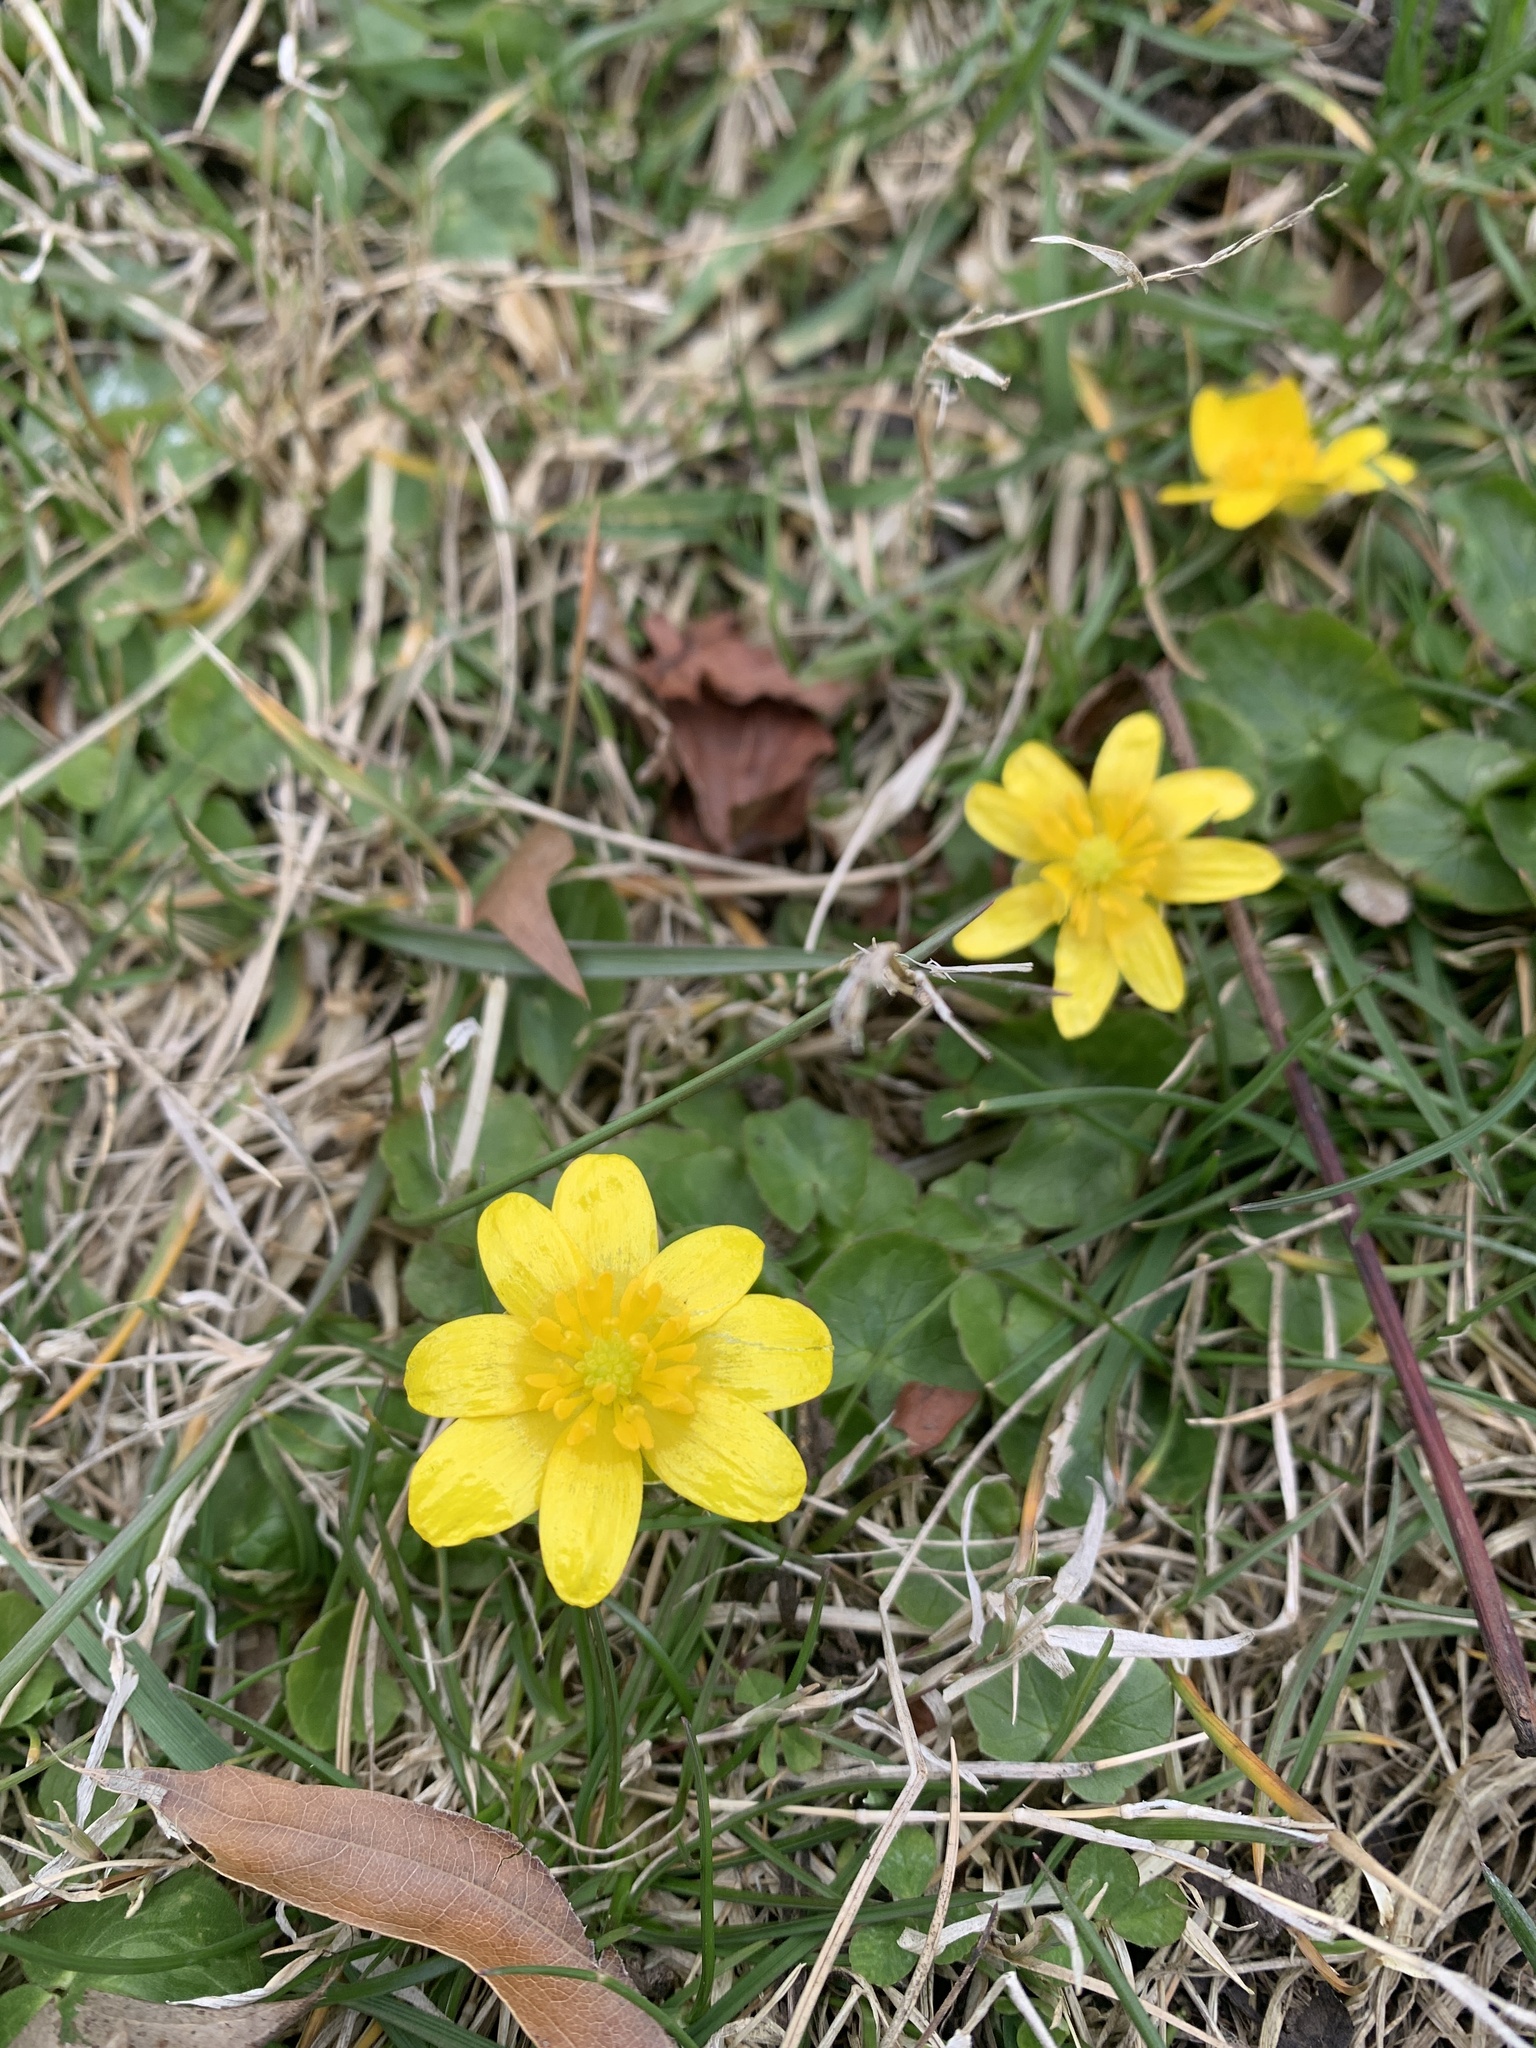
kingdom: Plantae
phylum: Tracheophyta
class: Magnoliopsida
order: Ranunculales
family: Ranunculaceae
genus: Ficaria
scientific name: Ficaria verna
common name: Lesser celandine
